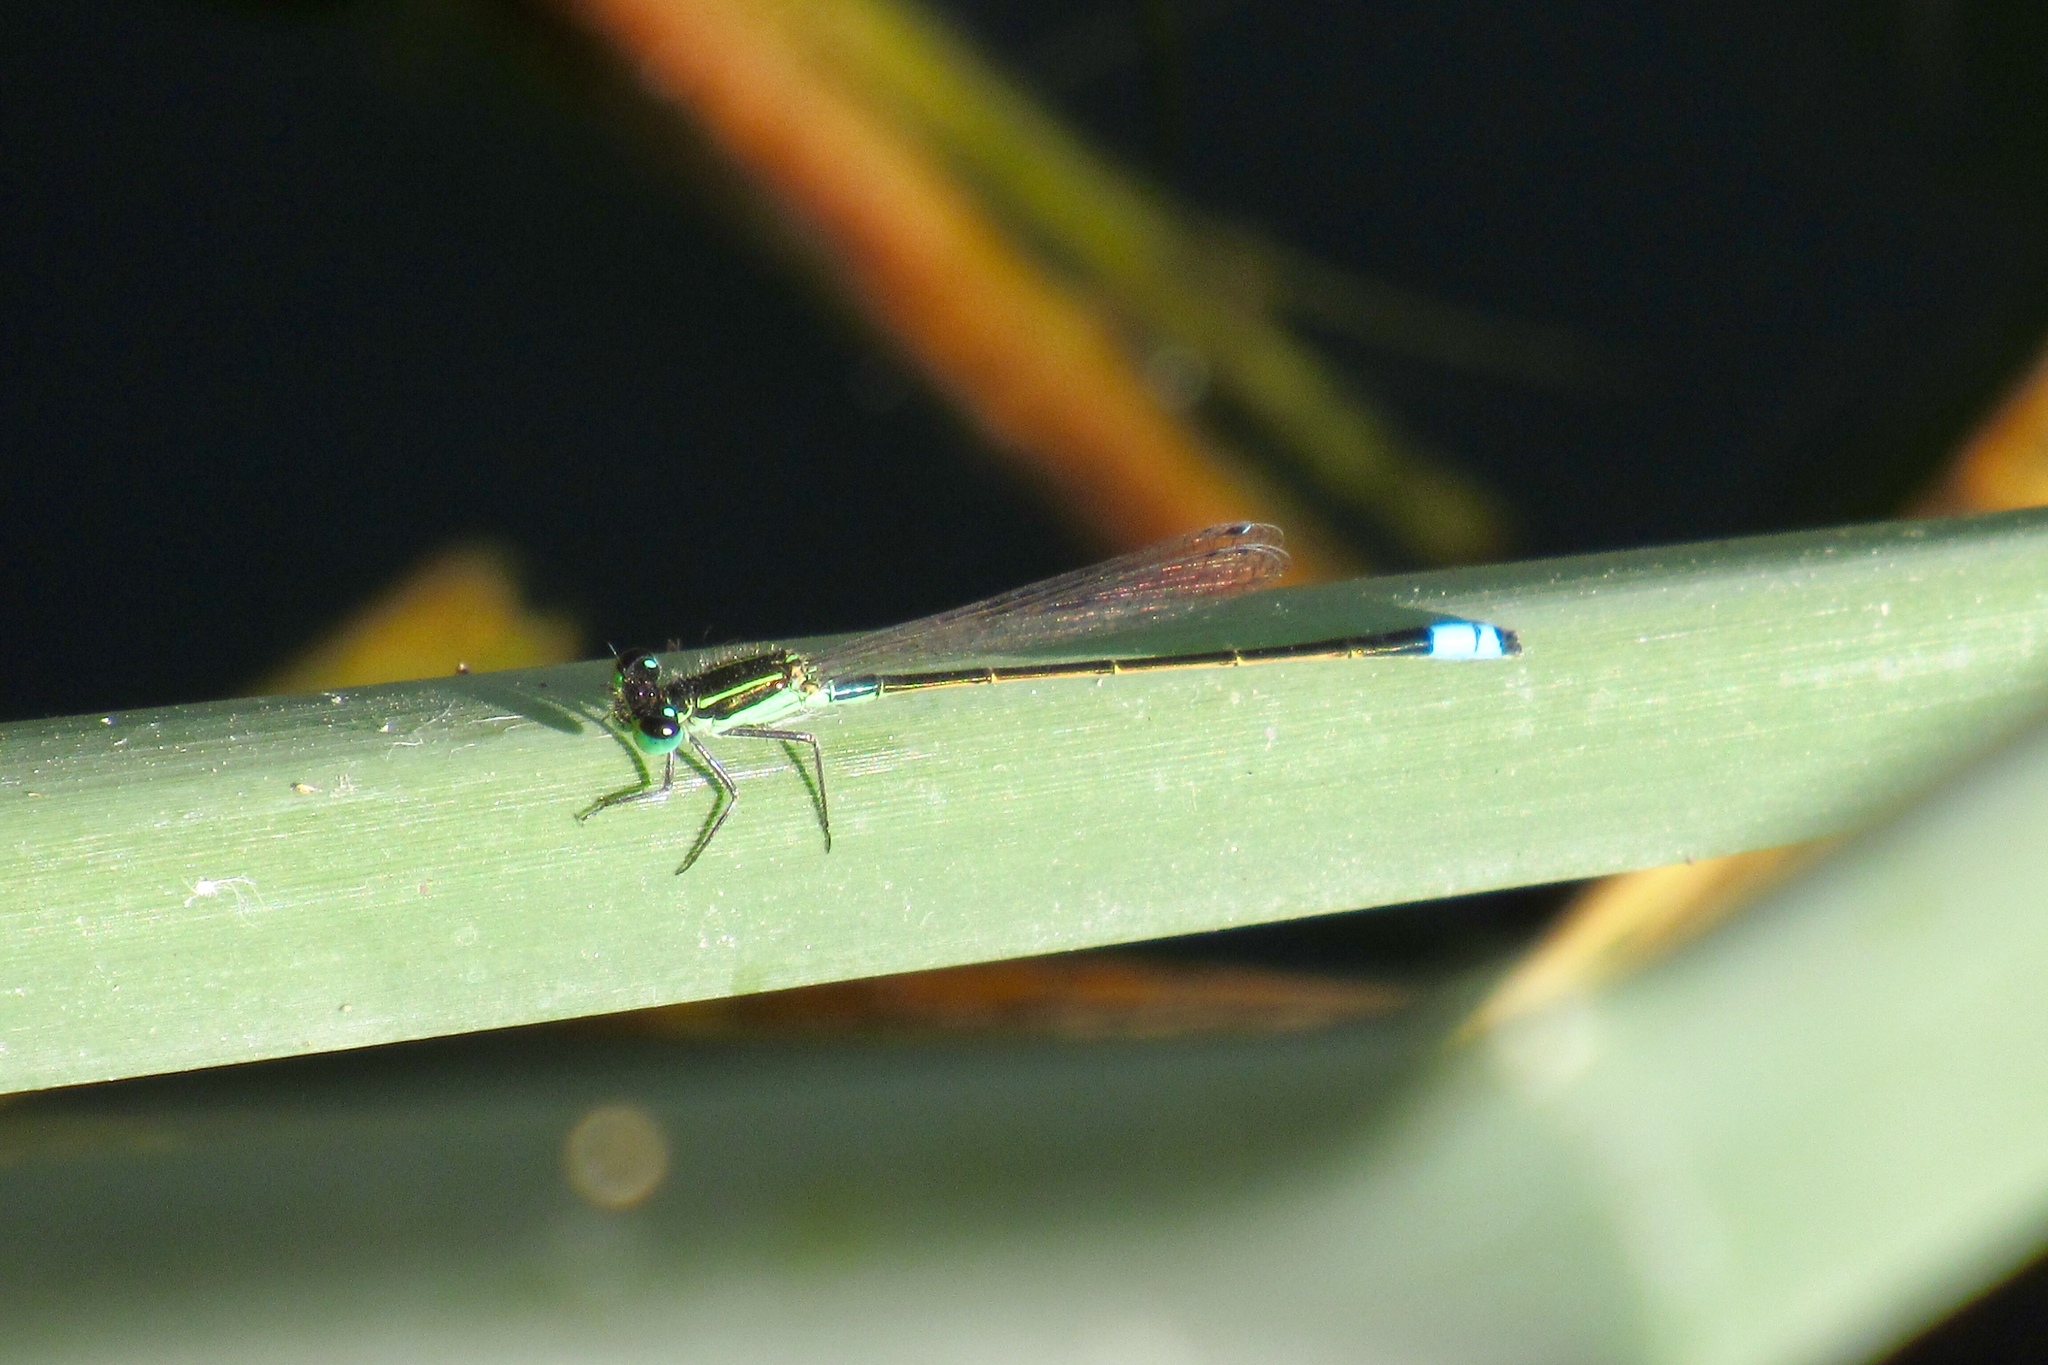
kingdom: Animalia
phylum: Arthropoda
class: Insecta
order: Odonata
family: Coenagrionidae
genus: Ischnura
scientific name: Ischnura ramburii
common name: Rambur's forktail
